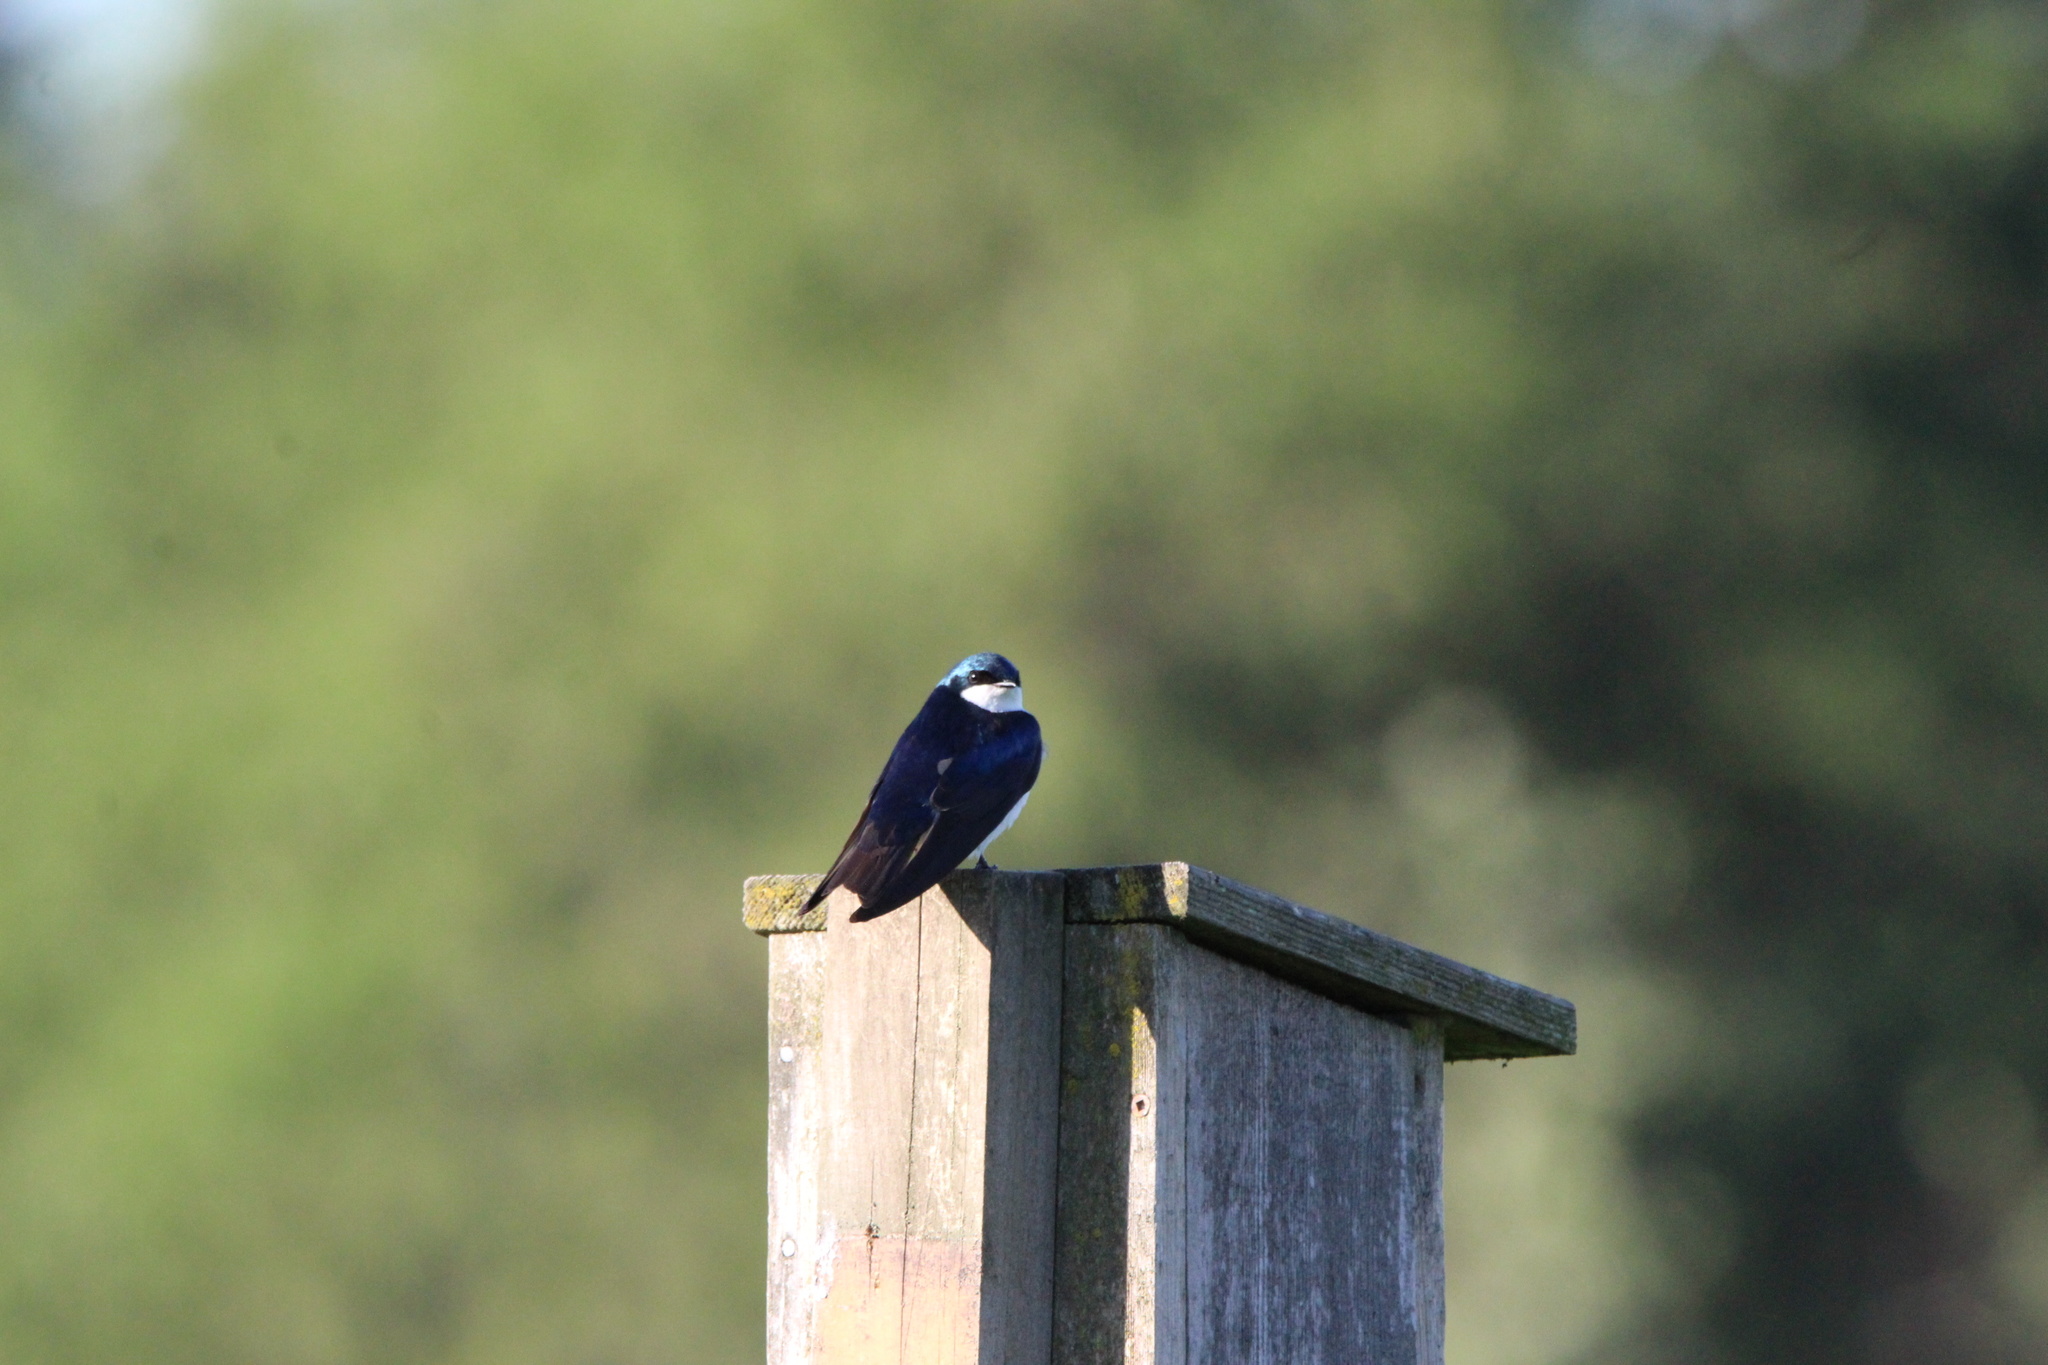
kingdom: Animalia
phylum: Chordata
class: Aves
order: Passeriformes
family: Hirundinidae
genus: Tachycineta
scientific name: Tachycineta bicolor
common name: Tree swallow
